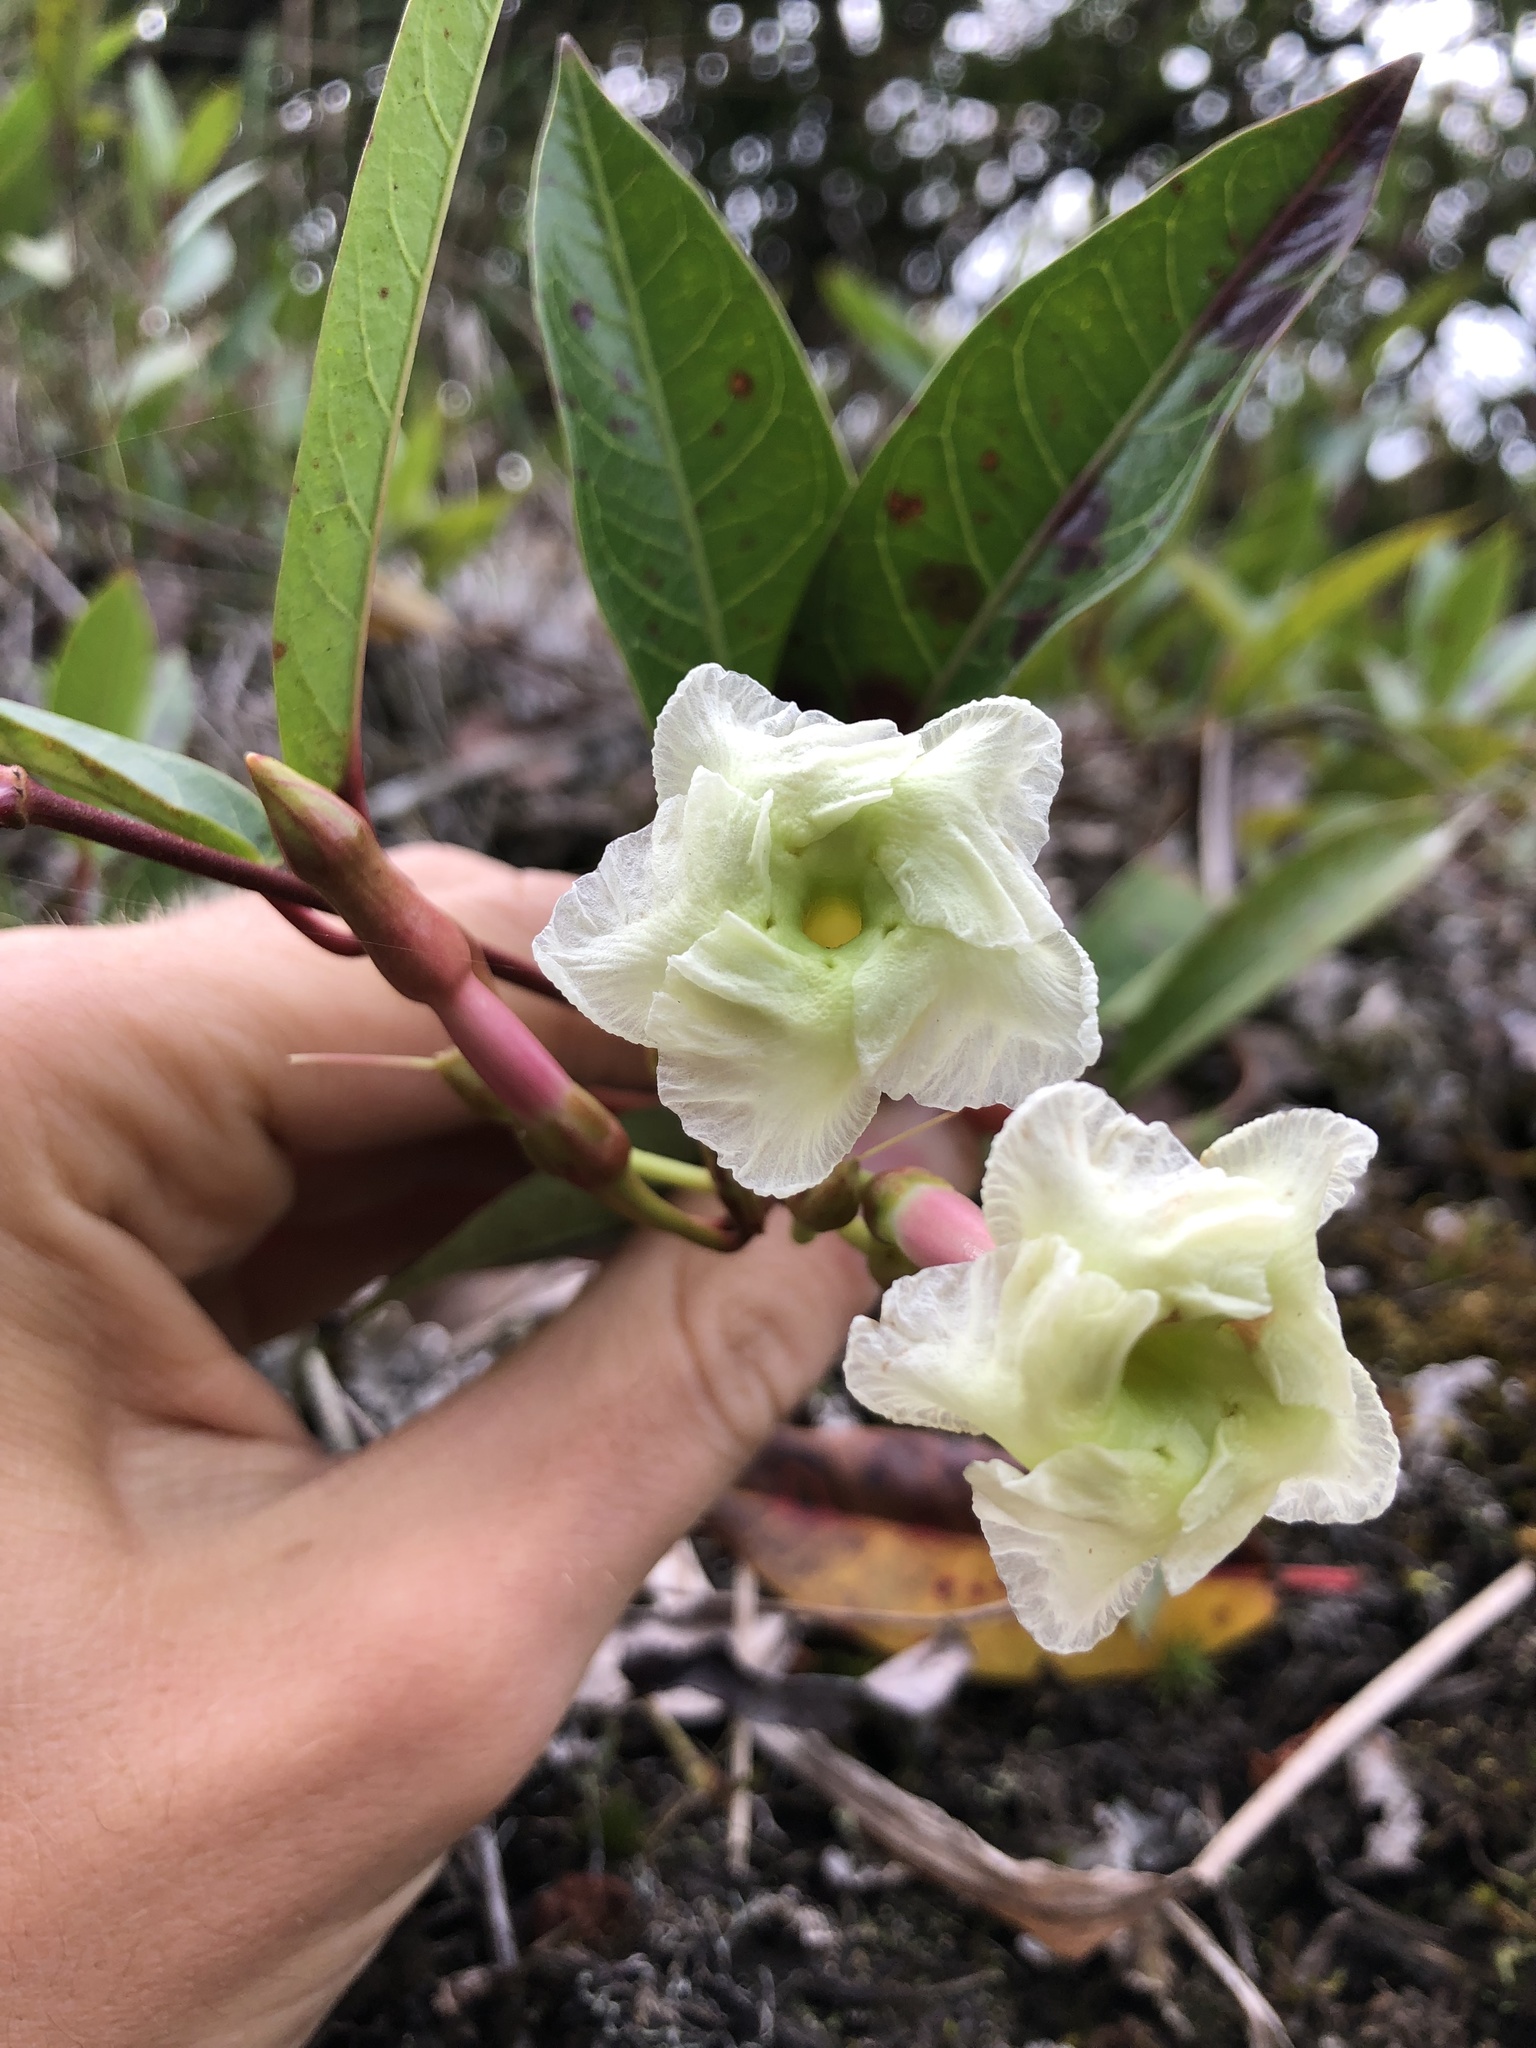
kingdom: Plantae
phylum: Tracheophyta
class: Magnoliopsida
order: Gentianales
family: Apocynaceae
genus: Mesechites
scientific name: Mesechites trifidus
